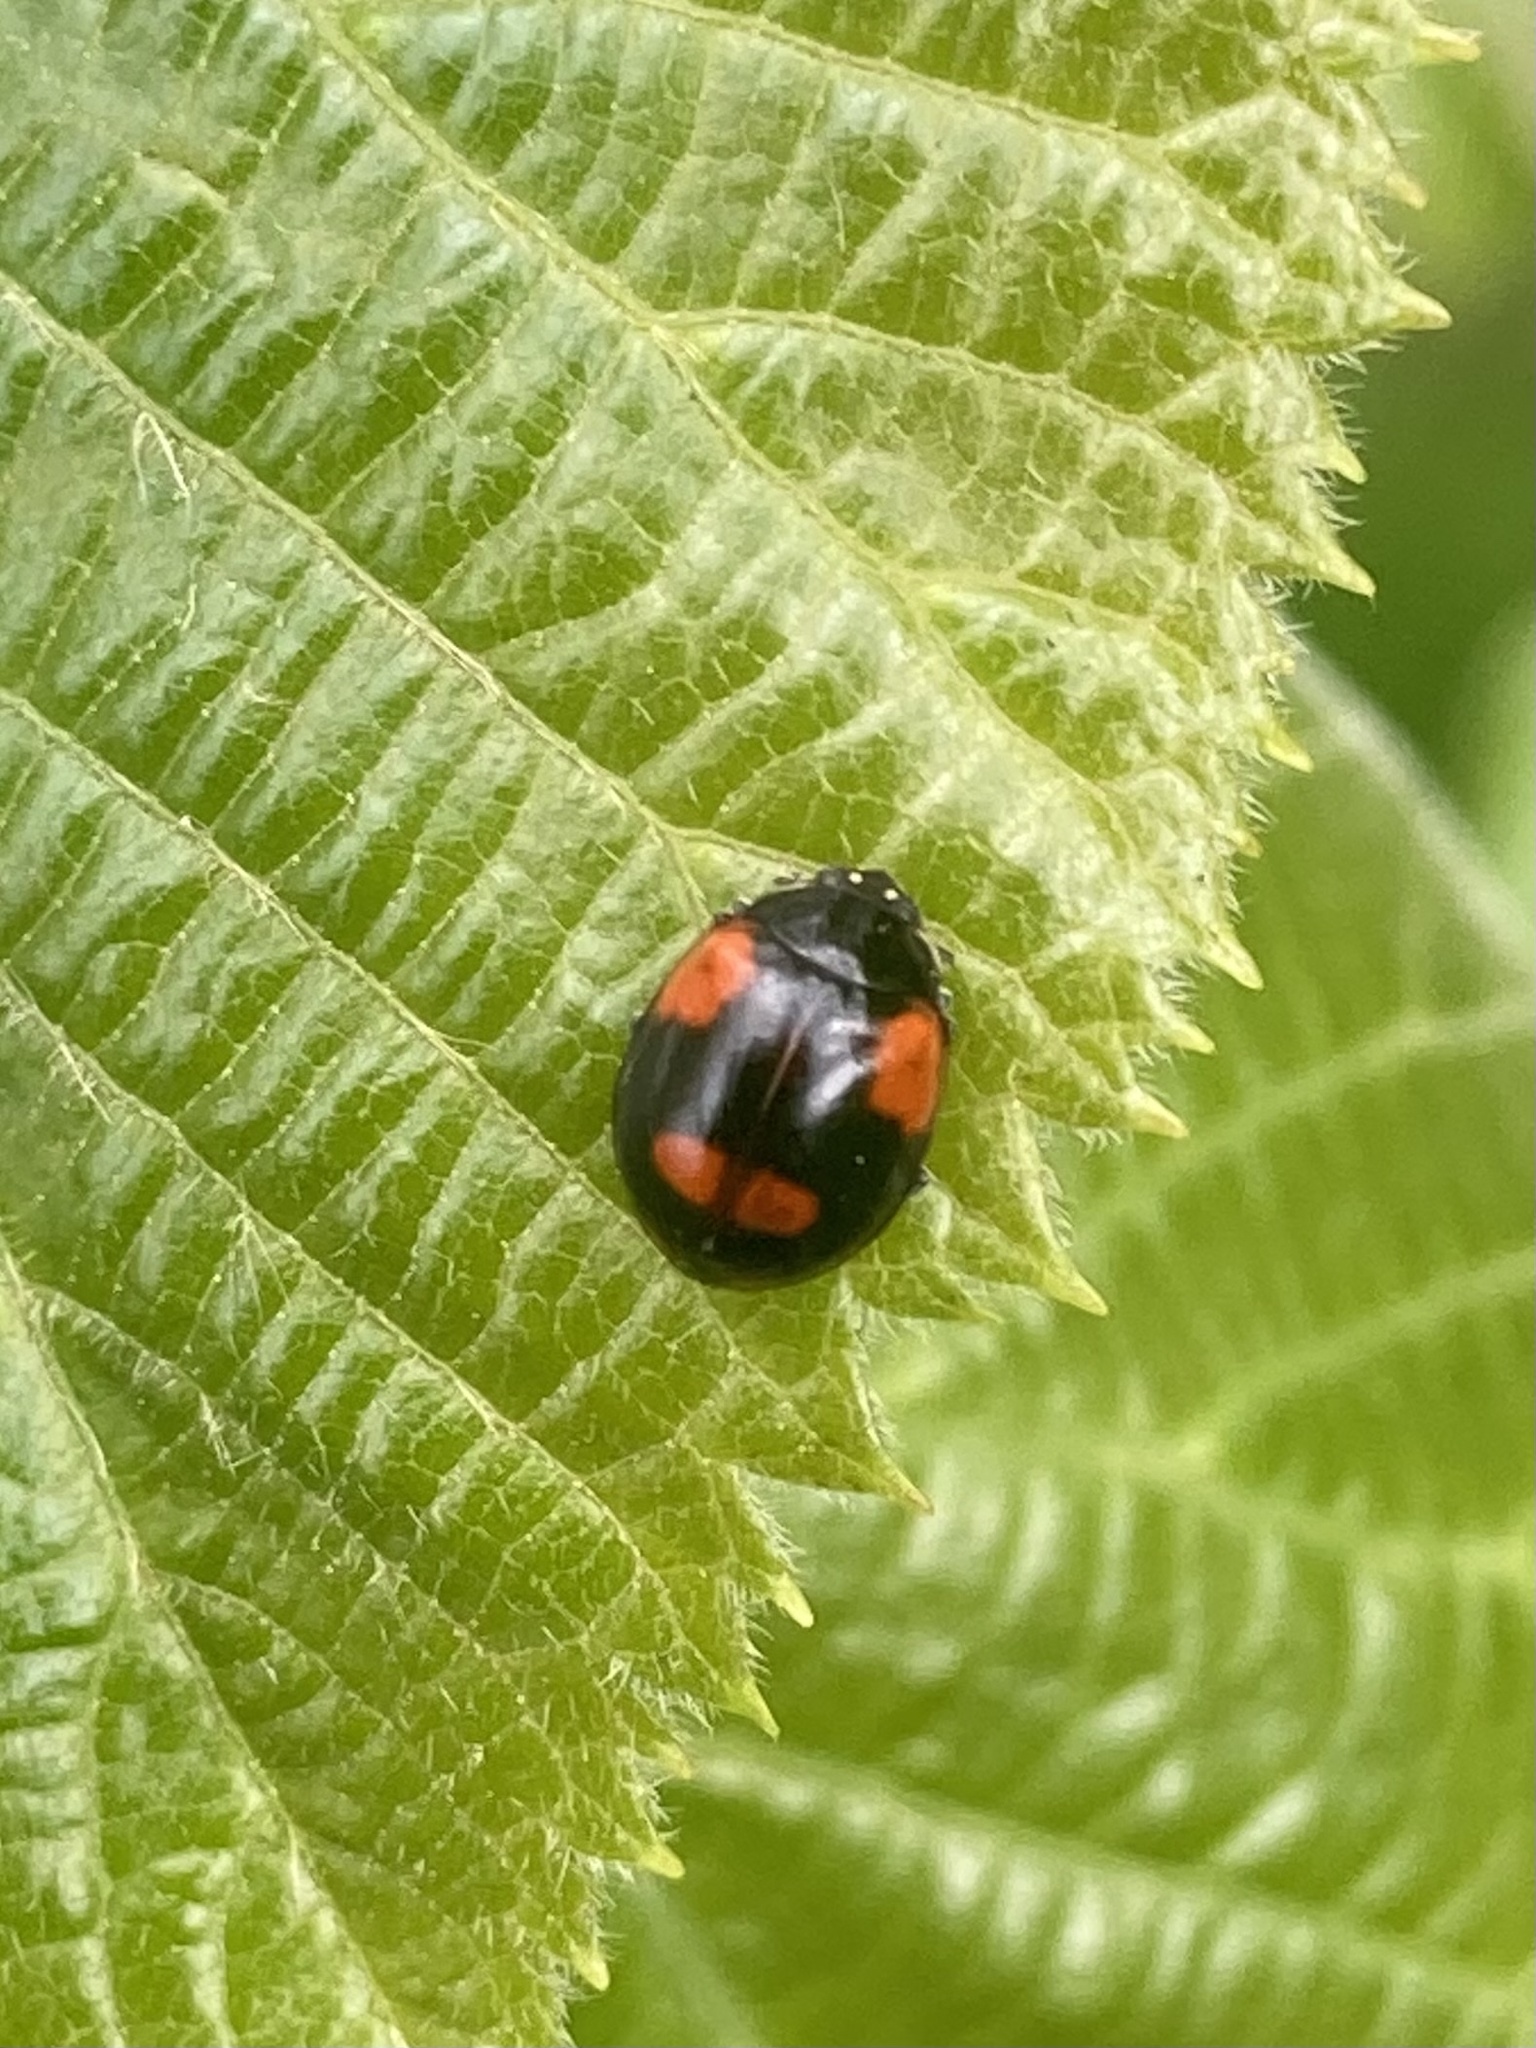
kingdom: Animalia
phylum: Arthropoda
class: Insecta
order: Coleoptera
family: Coccinellidae
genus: Adalia
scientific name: Adalia bipunctata
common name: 2-spot ladybird
